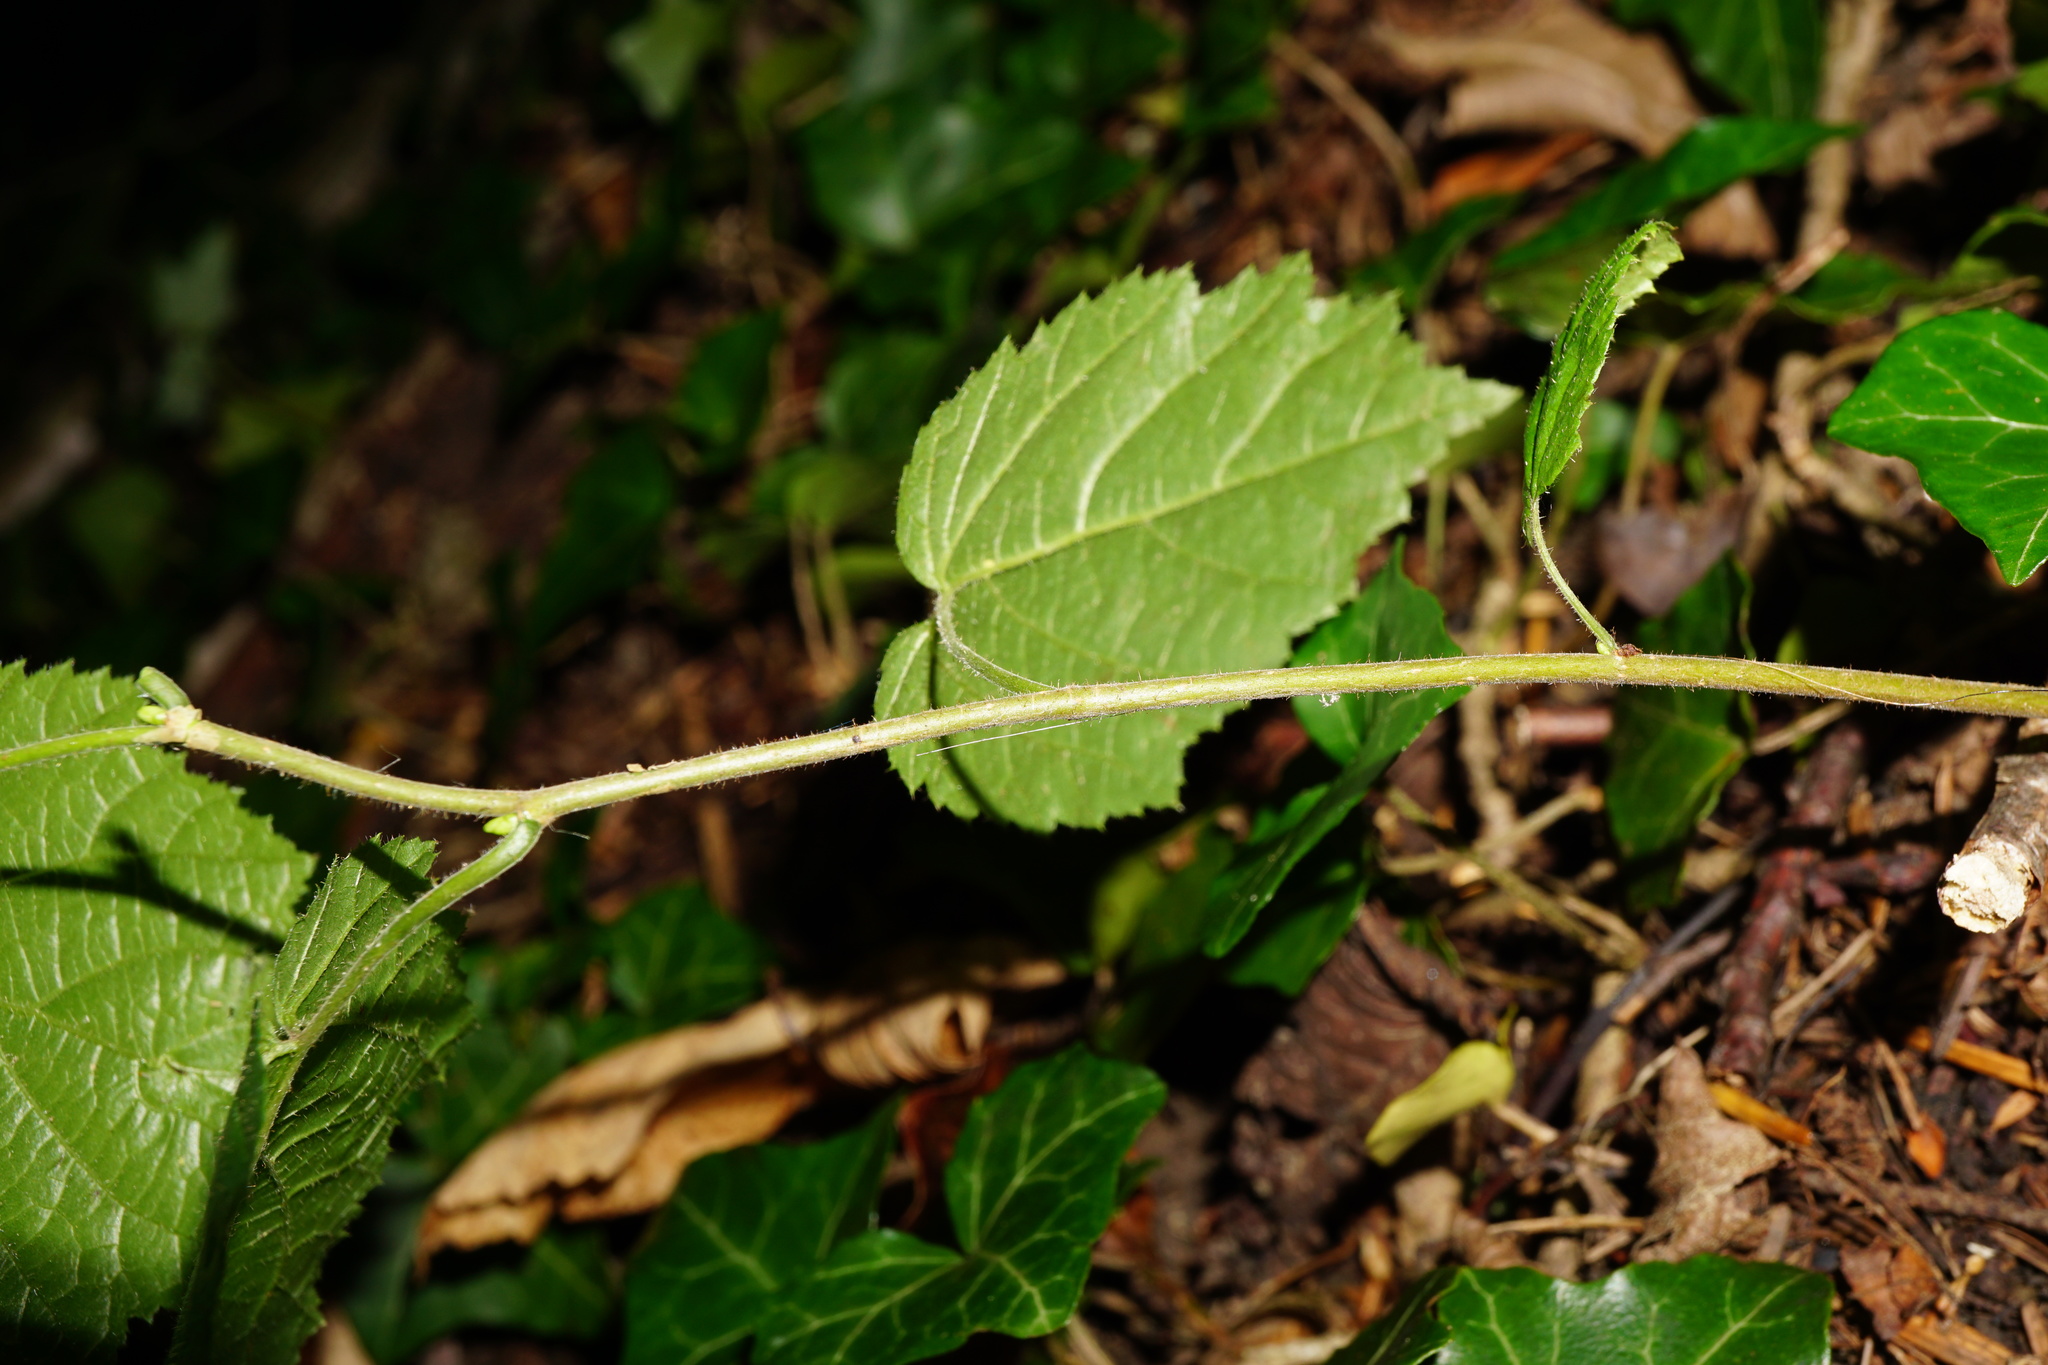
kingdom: Plantae
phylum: Tracheophyta
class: Magnoliopsida
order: Fagales
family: Betulaceae
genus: Corylus
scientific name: Corylus avellana
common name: European hazel
